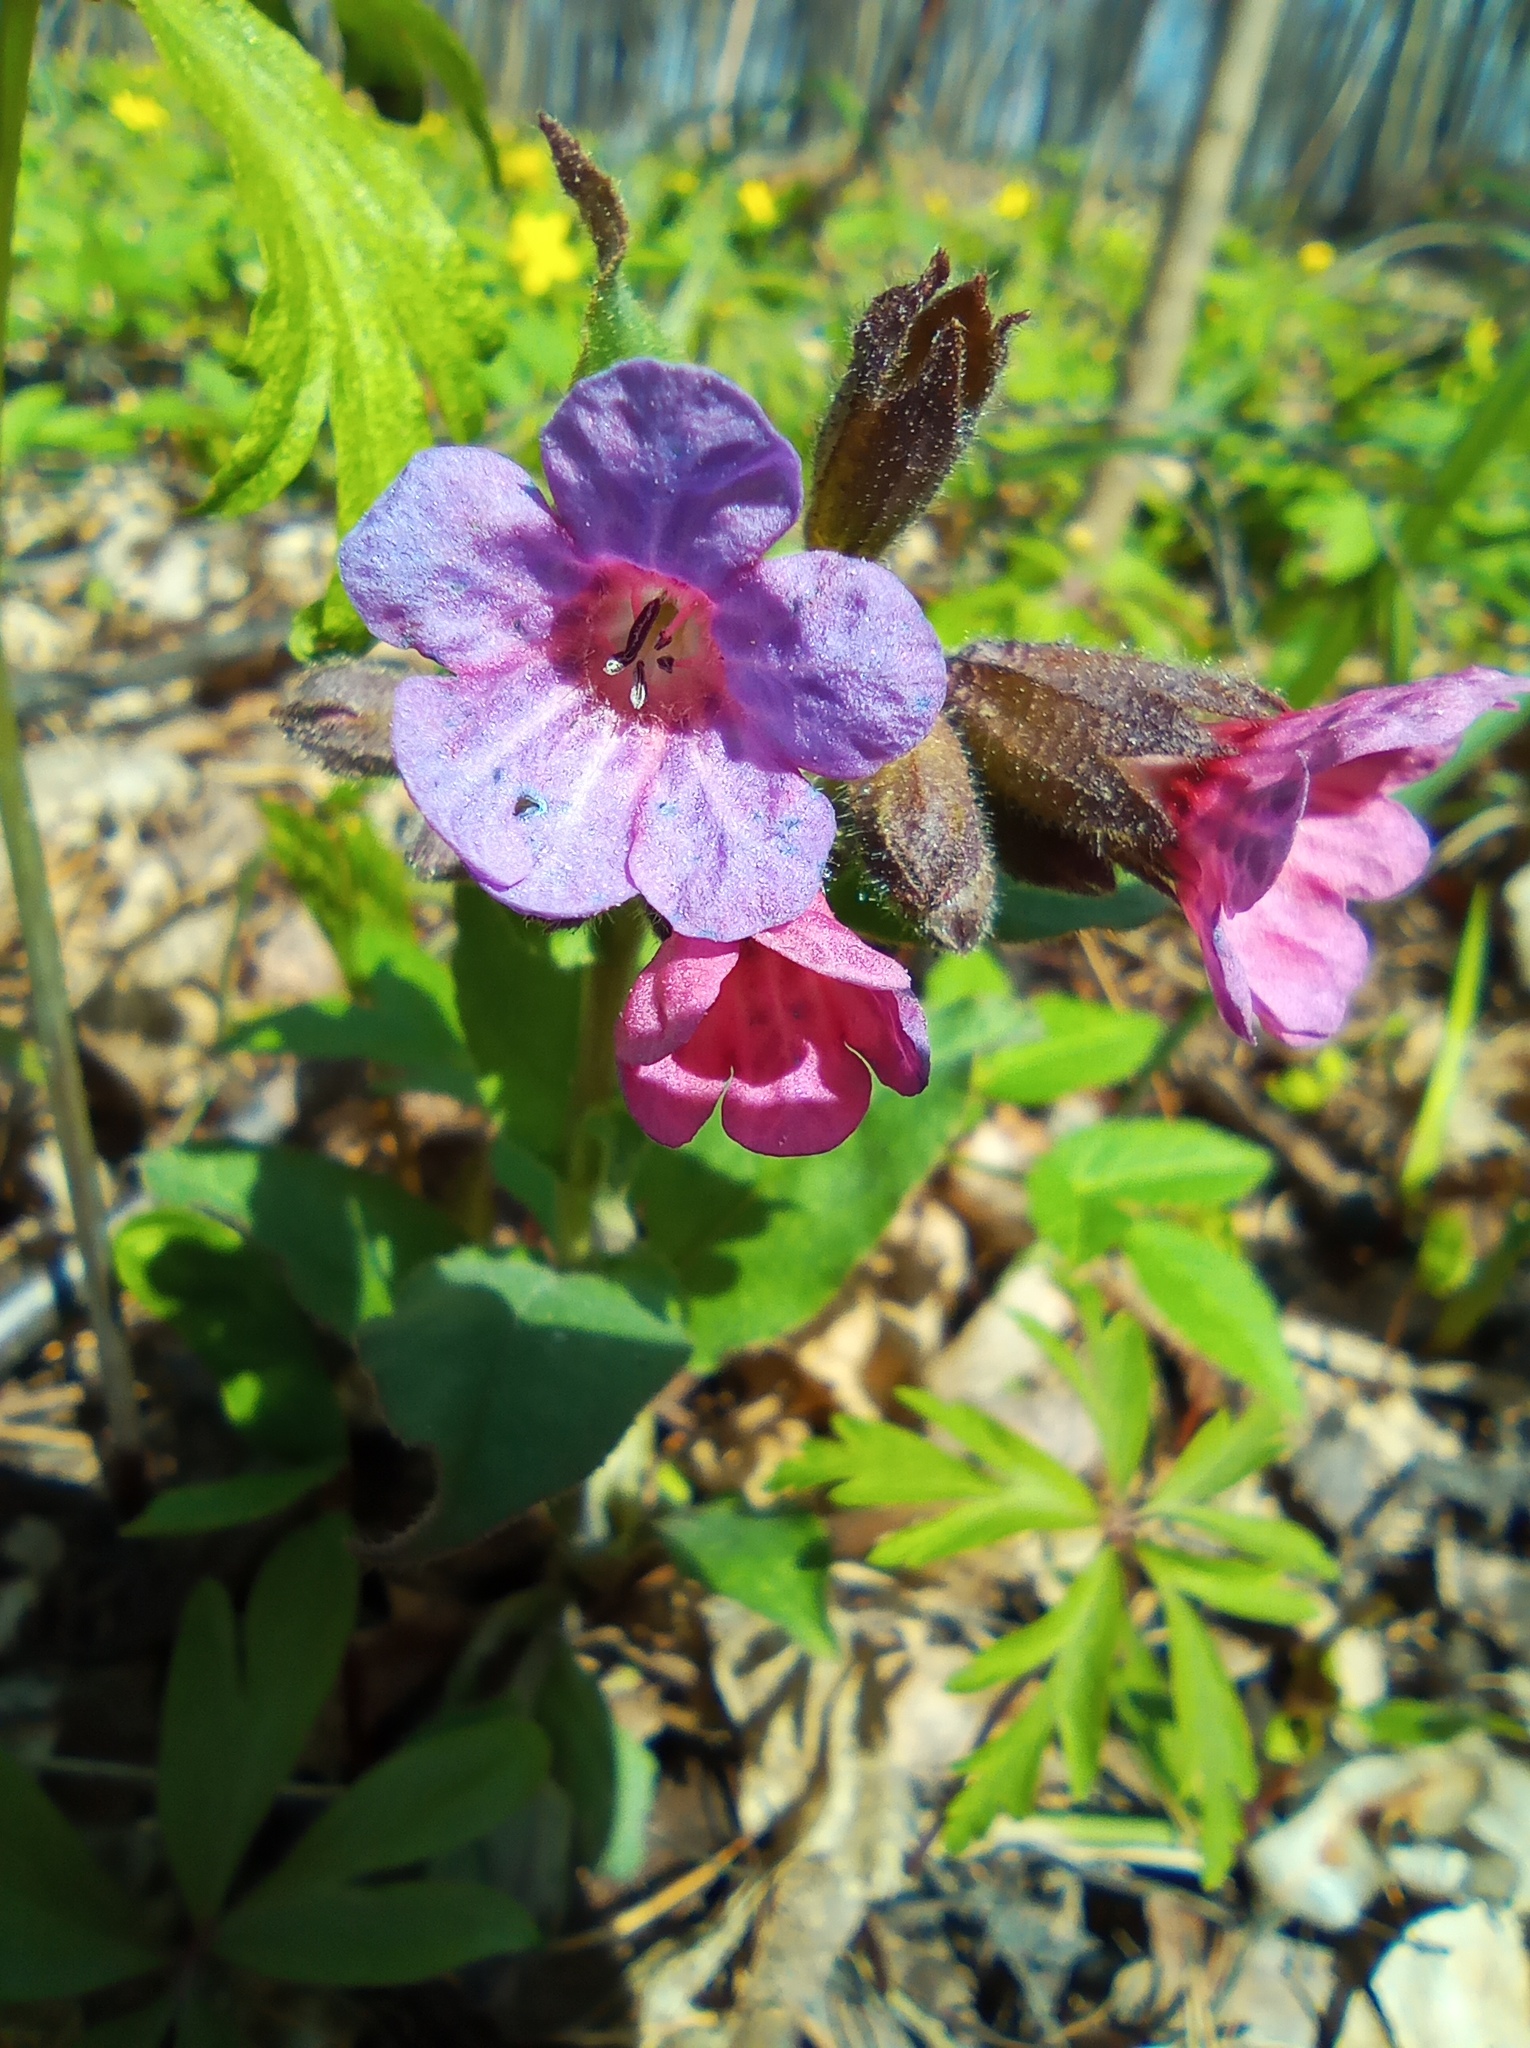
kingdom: Plantae
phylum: Tracheophyta
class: Magnoliopsida
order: Boraginales
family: Boraginaceae
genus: Pulmonaria
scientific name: Pulmonaria obscura
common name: Suffolk lungwort
